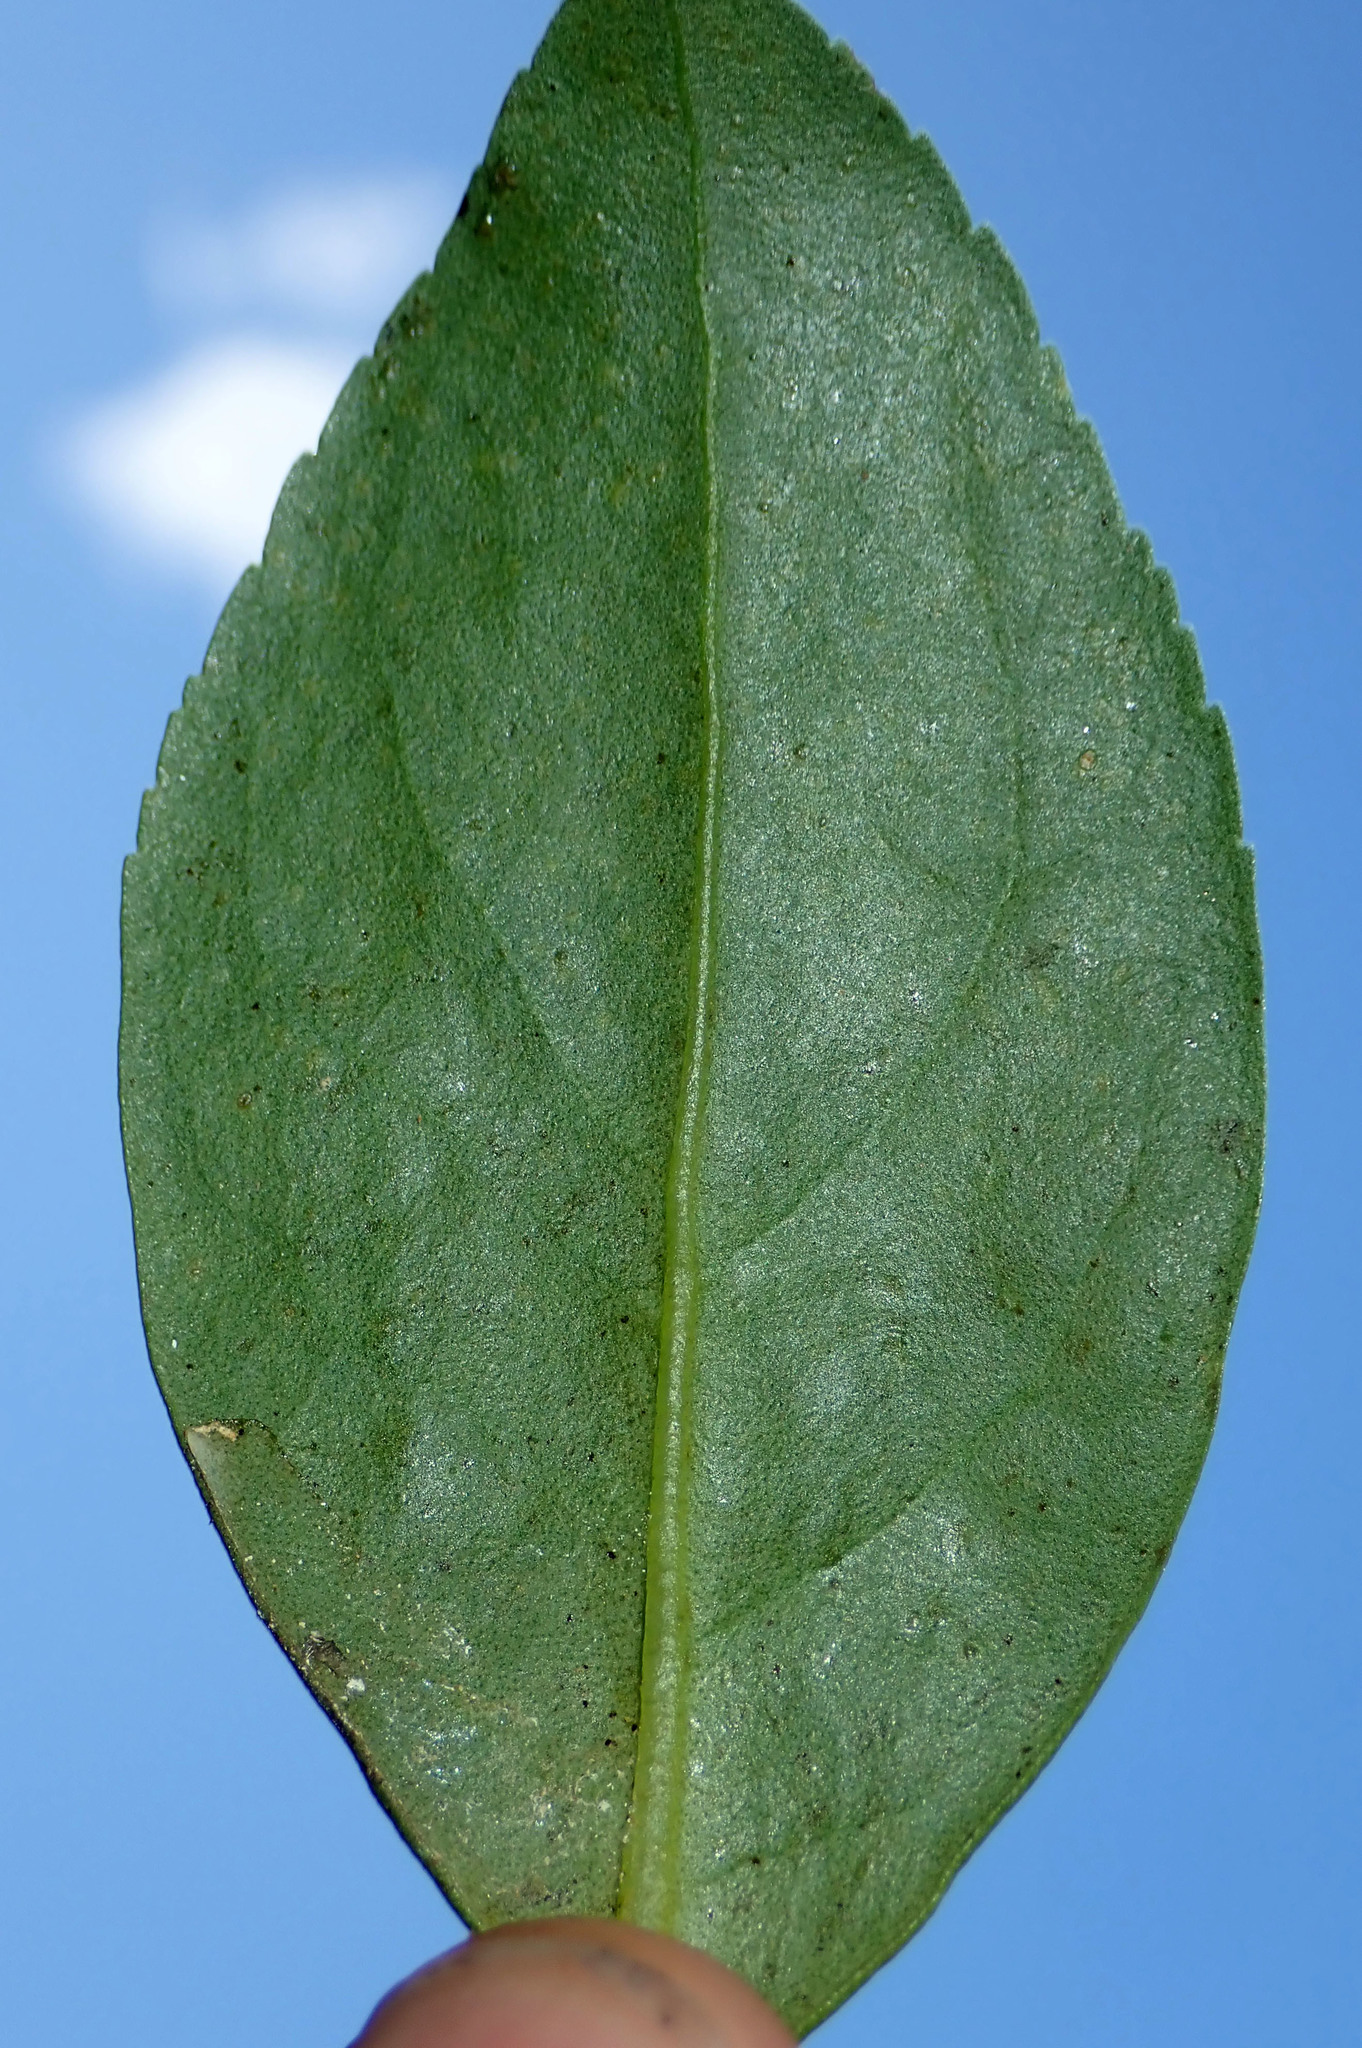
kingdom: Plantae
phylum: Tracheophyta
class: Magnoliopsida
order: Lamiales
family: Scrophulariaceae
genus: Myoporum
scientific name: Myoporum semotum
